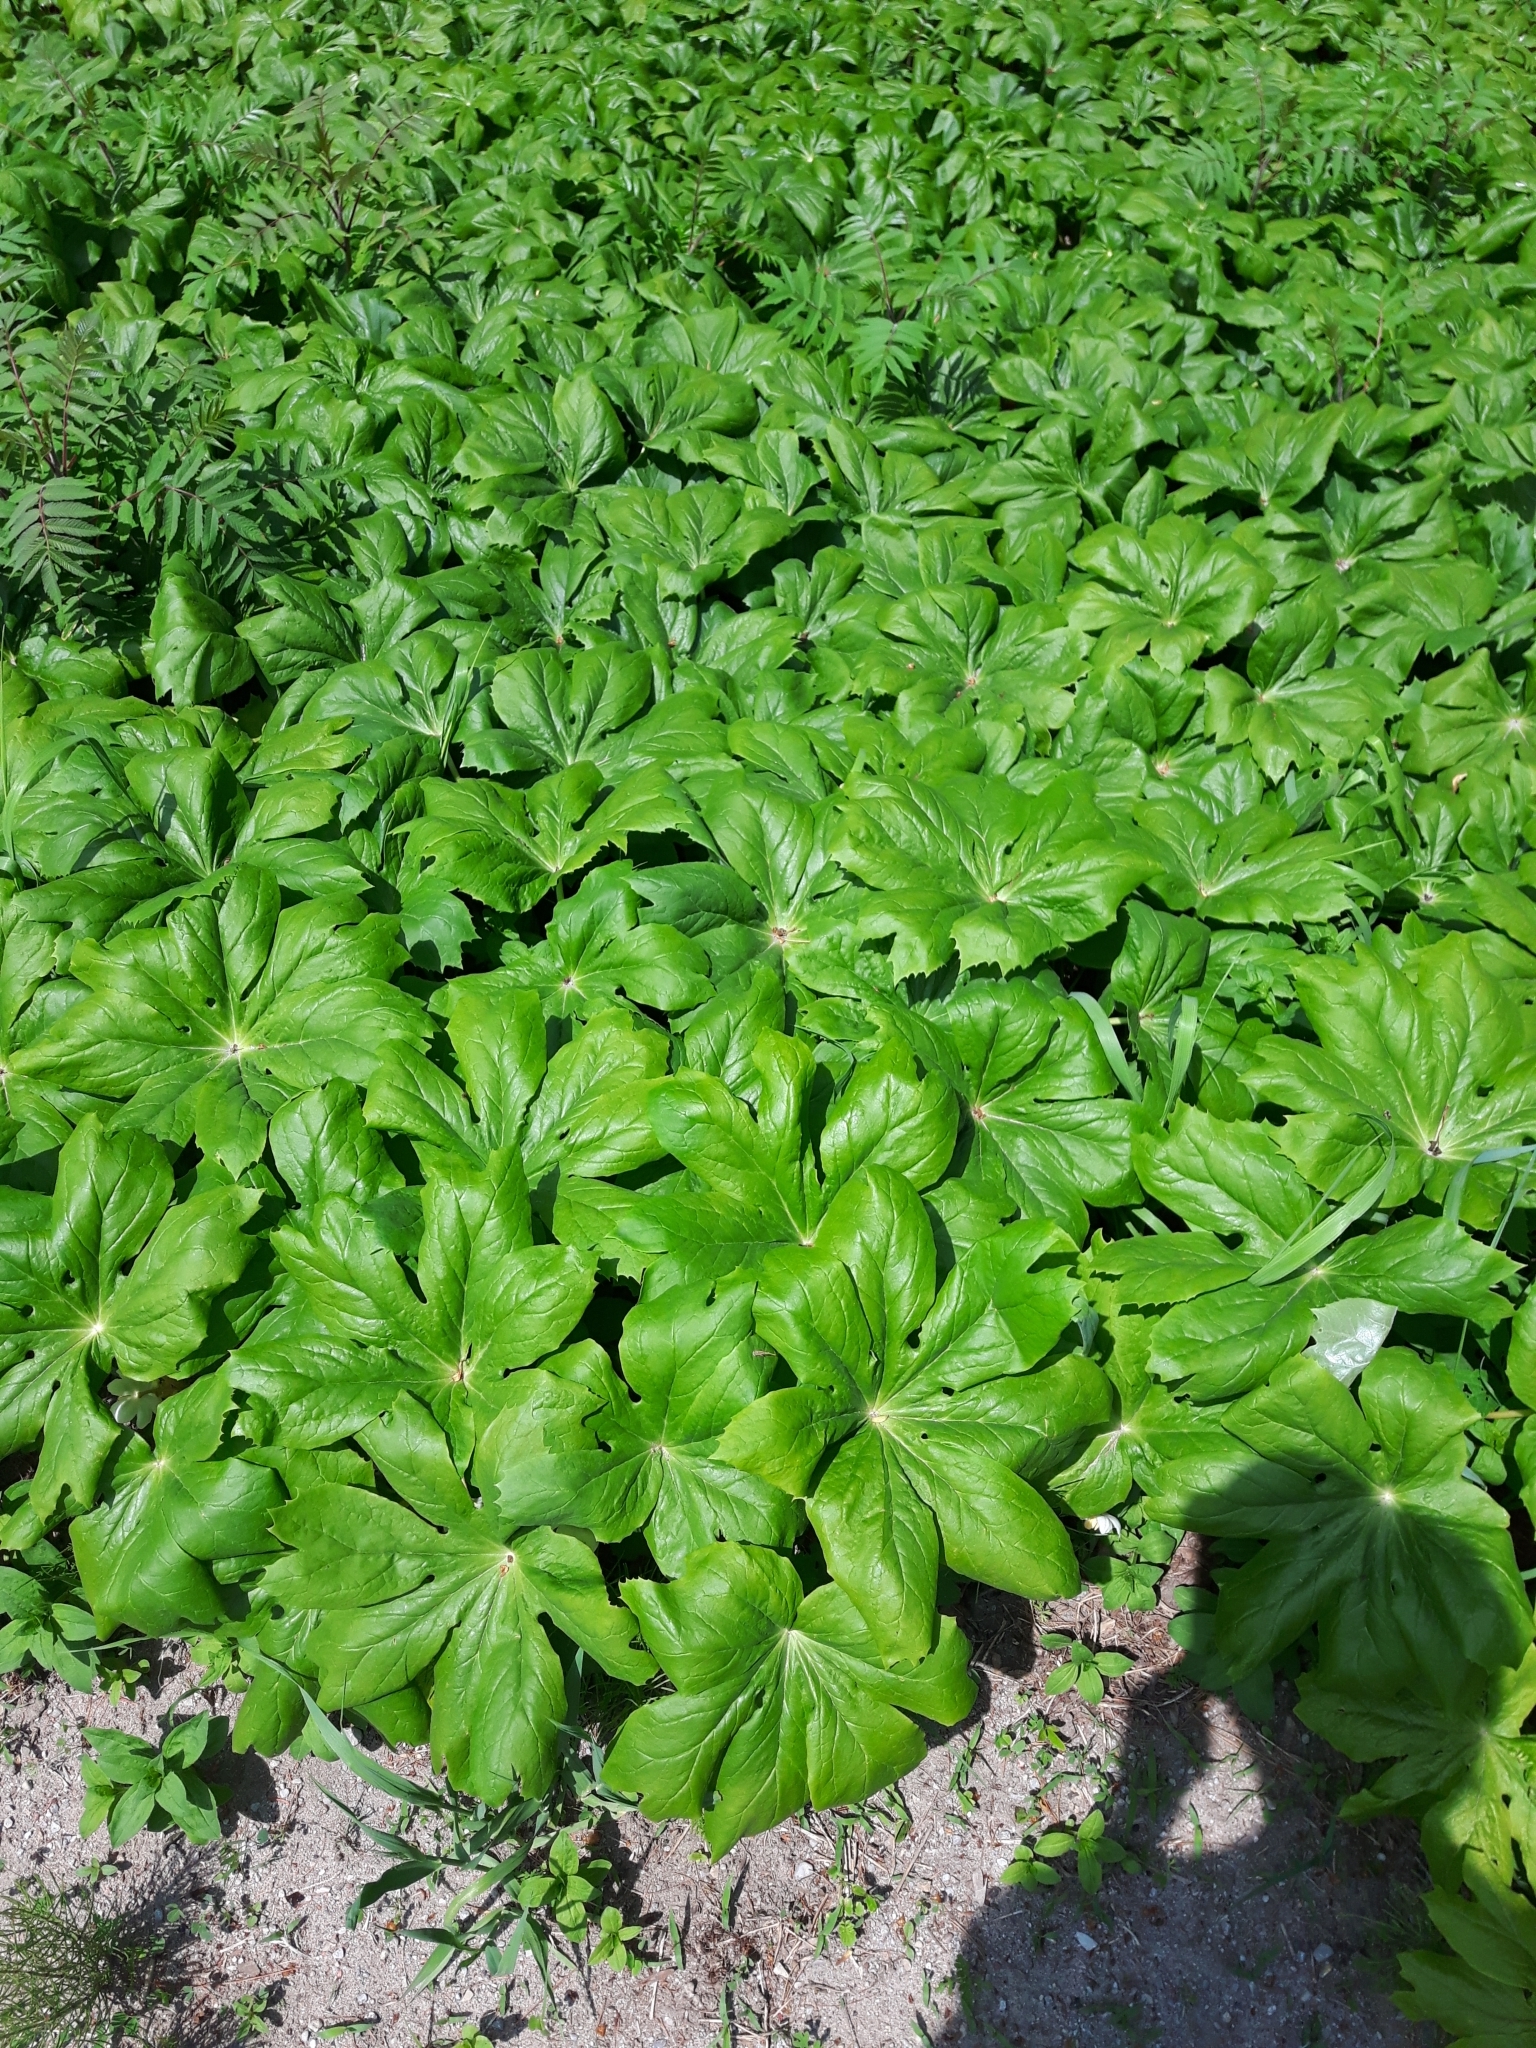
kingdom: Plantae
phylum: Tracheophyta
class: Magnoliopsida
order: Ranunculales
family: Berberidaceae
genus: Podophyllum
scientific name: Podophyllum peltatum
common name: Wild mandrake
